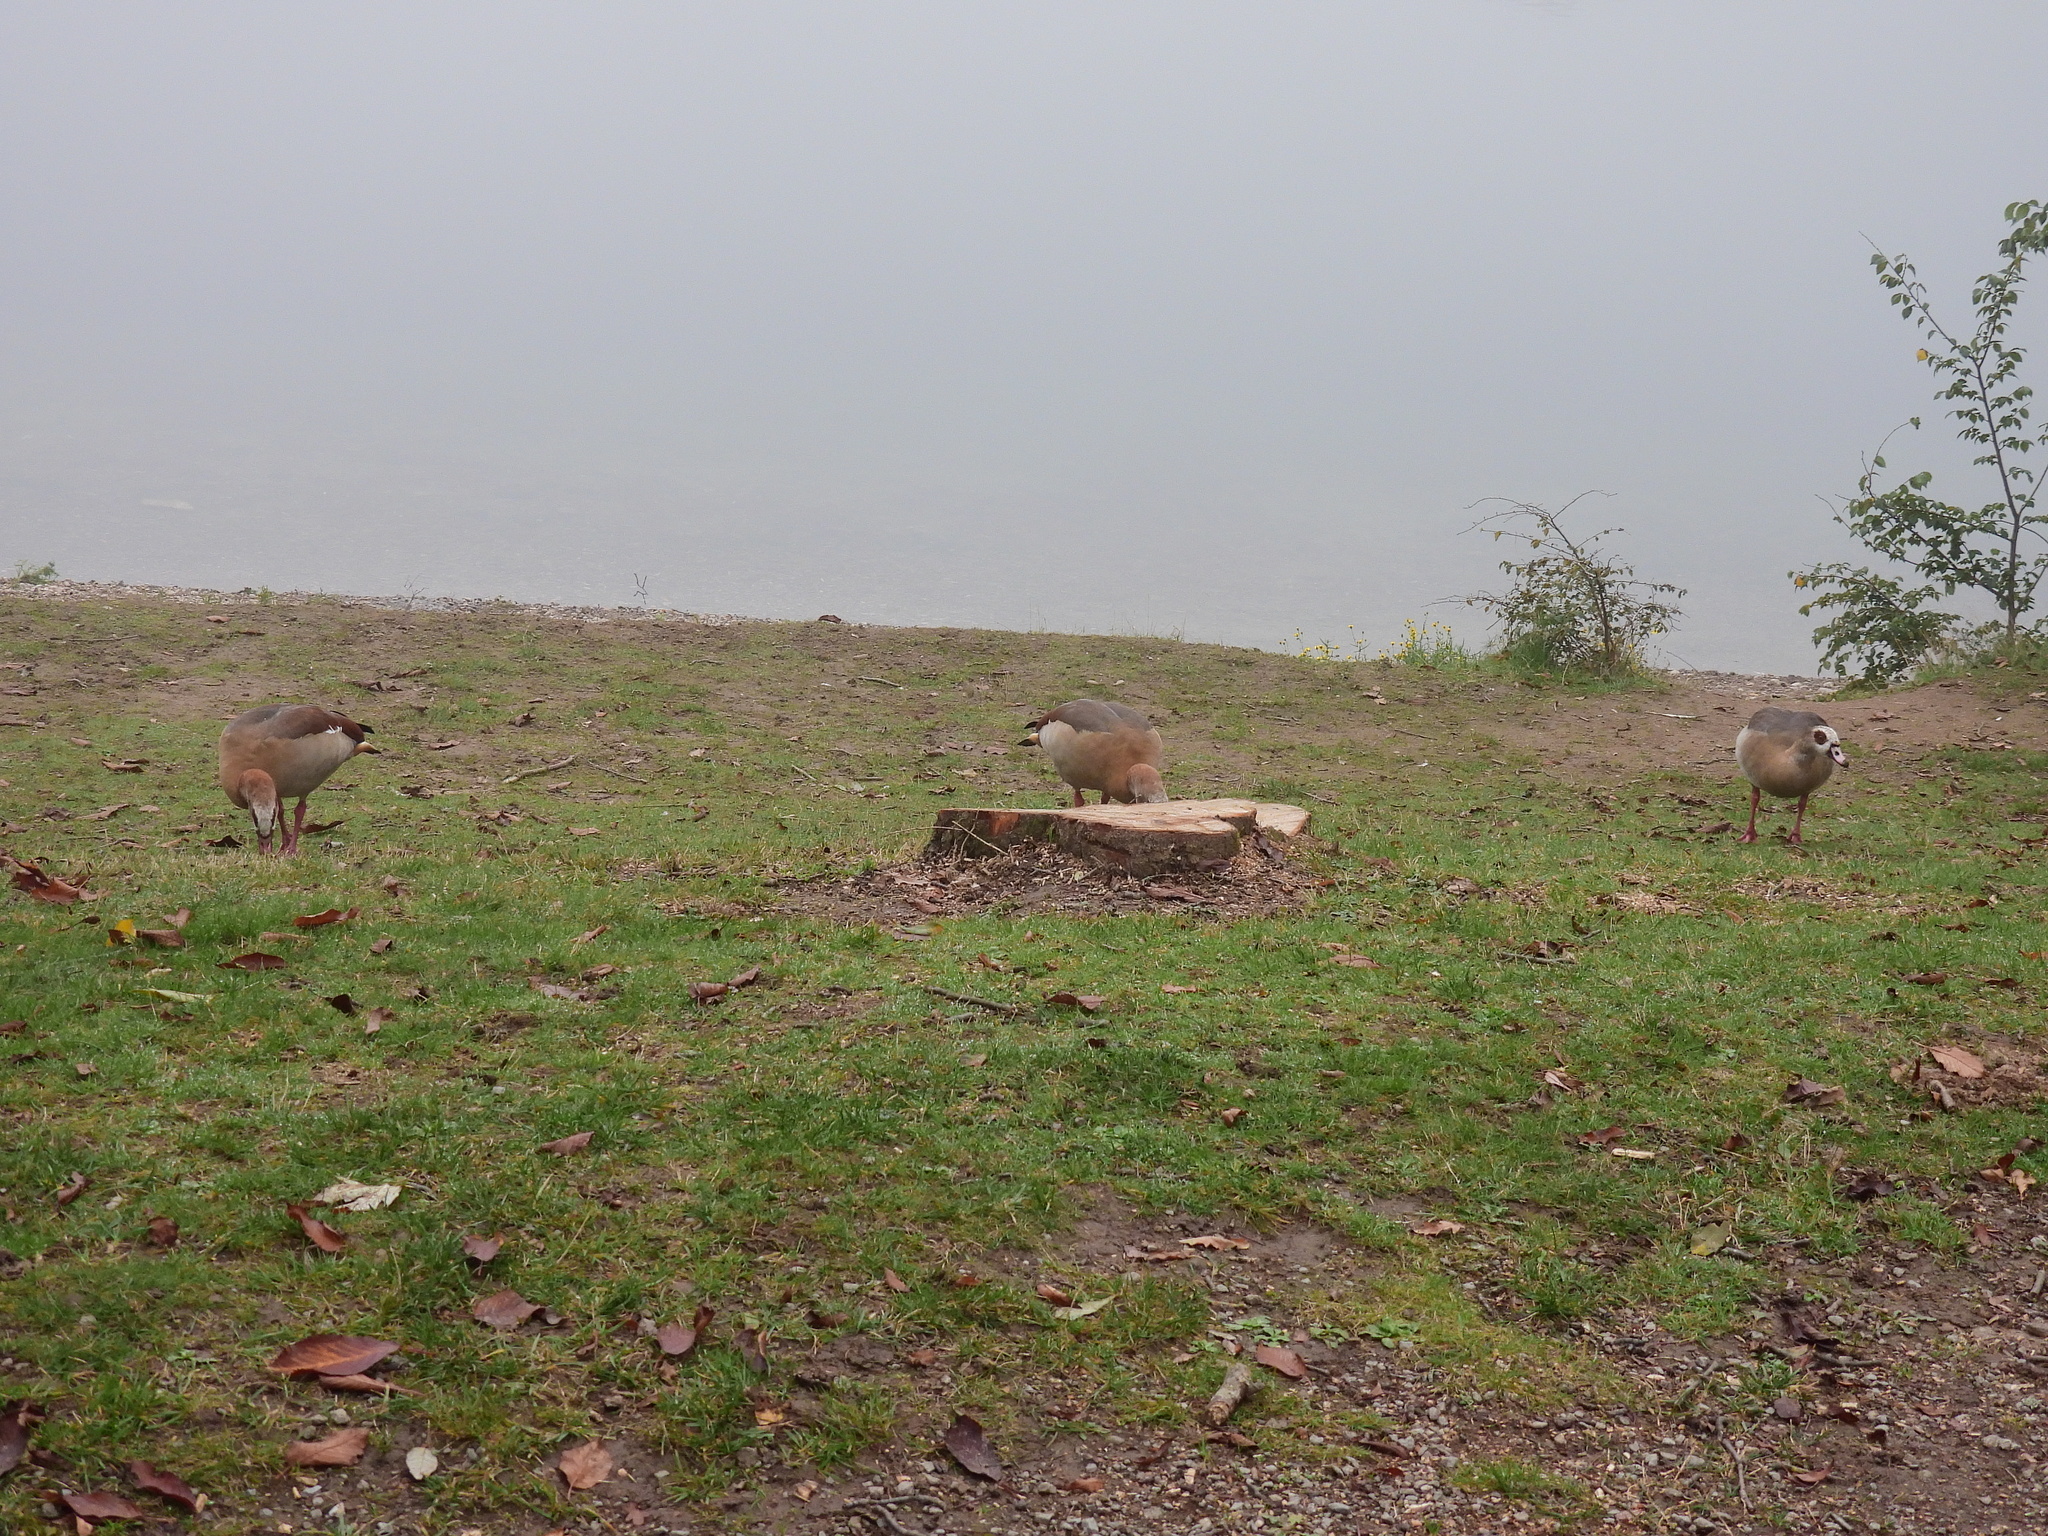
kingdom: Animalia
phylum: Chordata
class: Aves
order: Anseriformes
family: Anatidae
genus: Alopochen
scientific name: Alopochen aegyptiaca
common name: Egyptian goose
